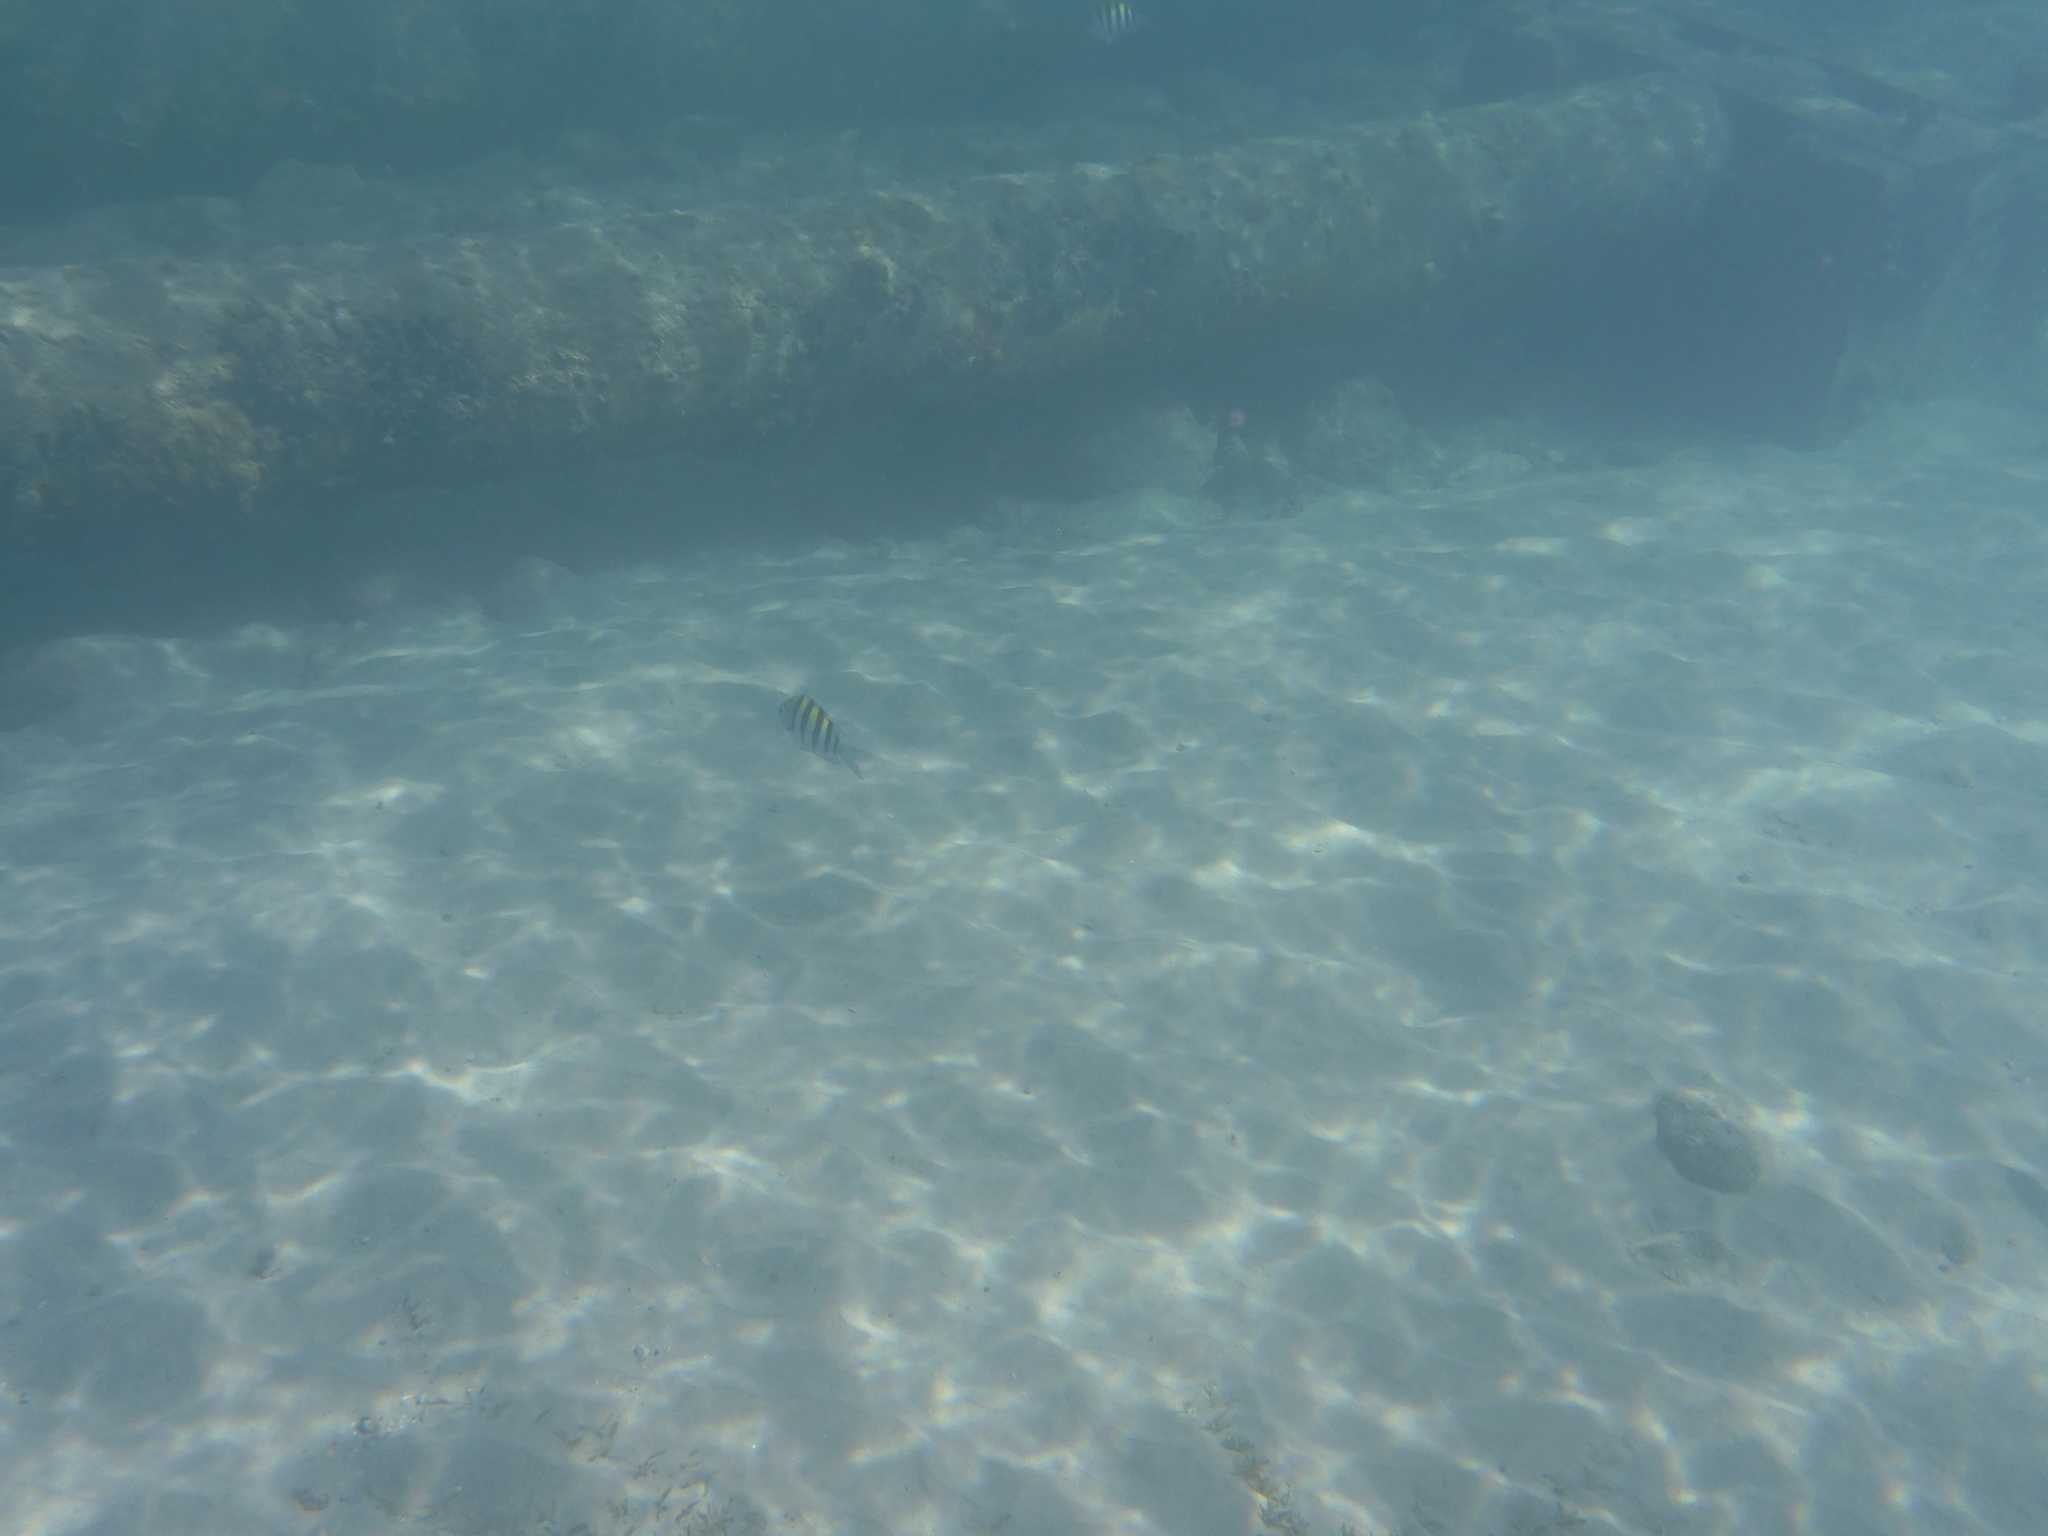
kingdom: Animalia
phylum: Chordata
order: Perciformes
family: Pomacentridae
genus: Abudefduf
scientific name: Abudefduf saxatilis
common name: Sergeant major
